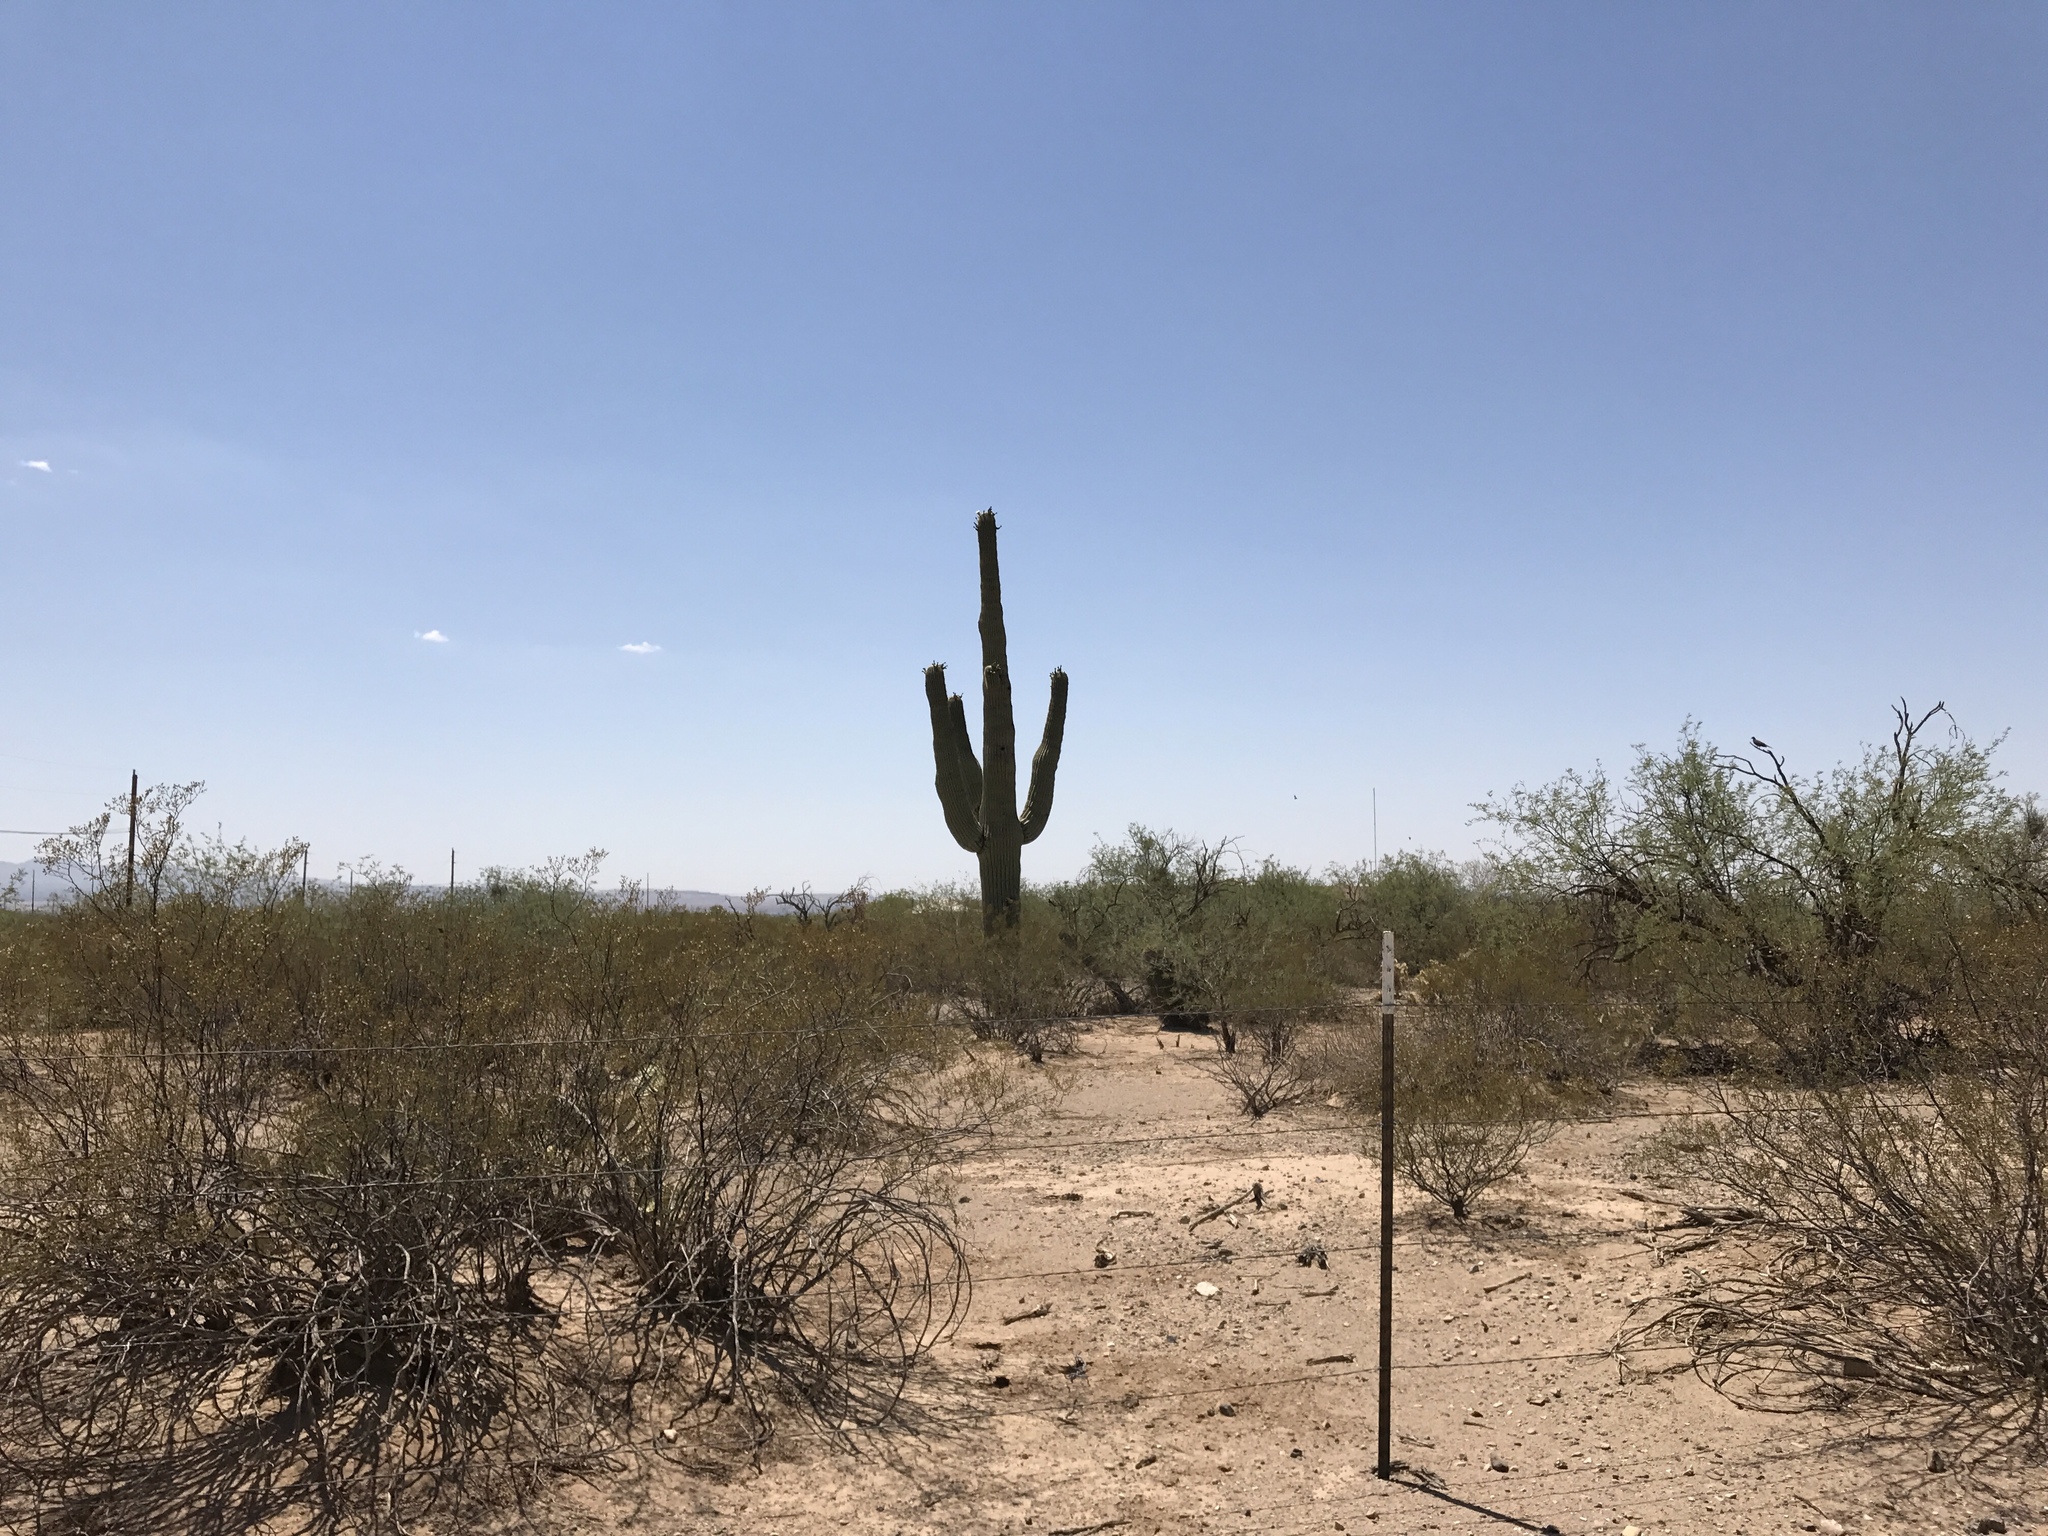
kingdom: Plantae
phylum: Tracheophyta
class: Magnoliopsida
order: Caryophyllales
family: Cactaceae
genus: Carnegiea
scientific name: Carnegiea gigantea
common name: Saguaro
